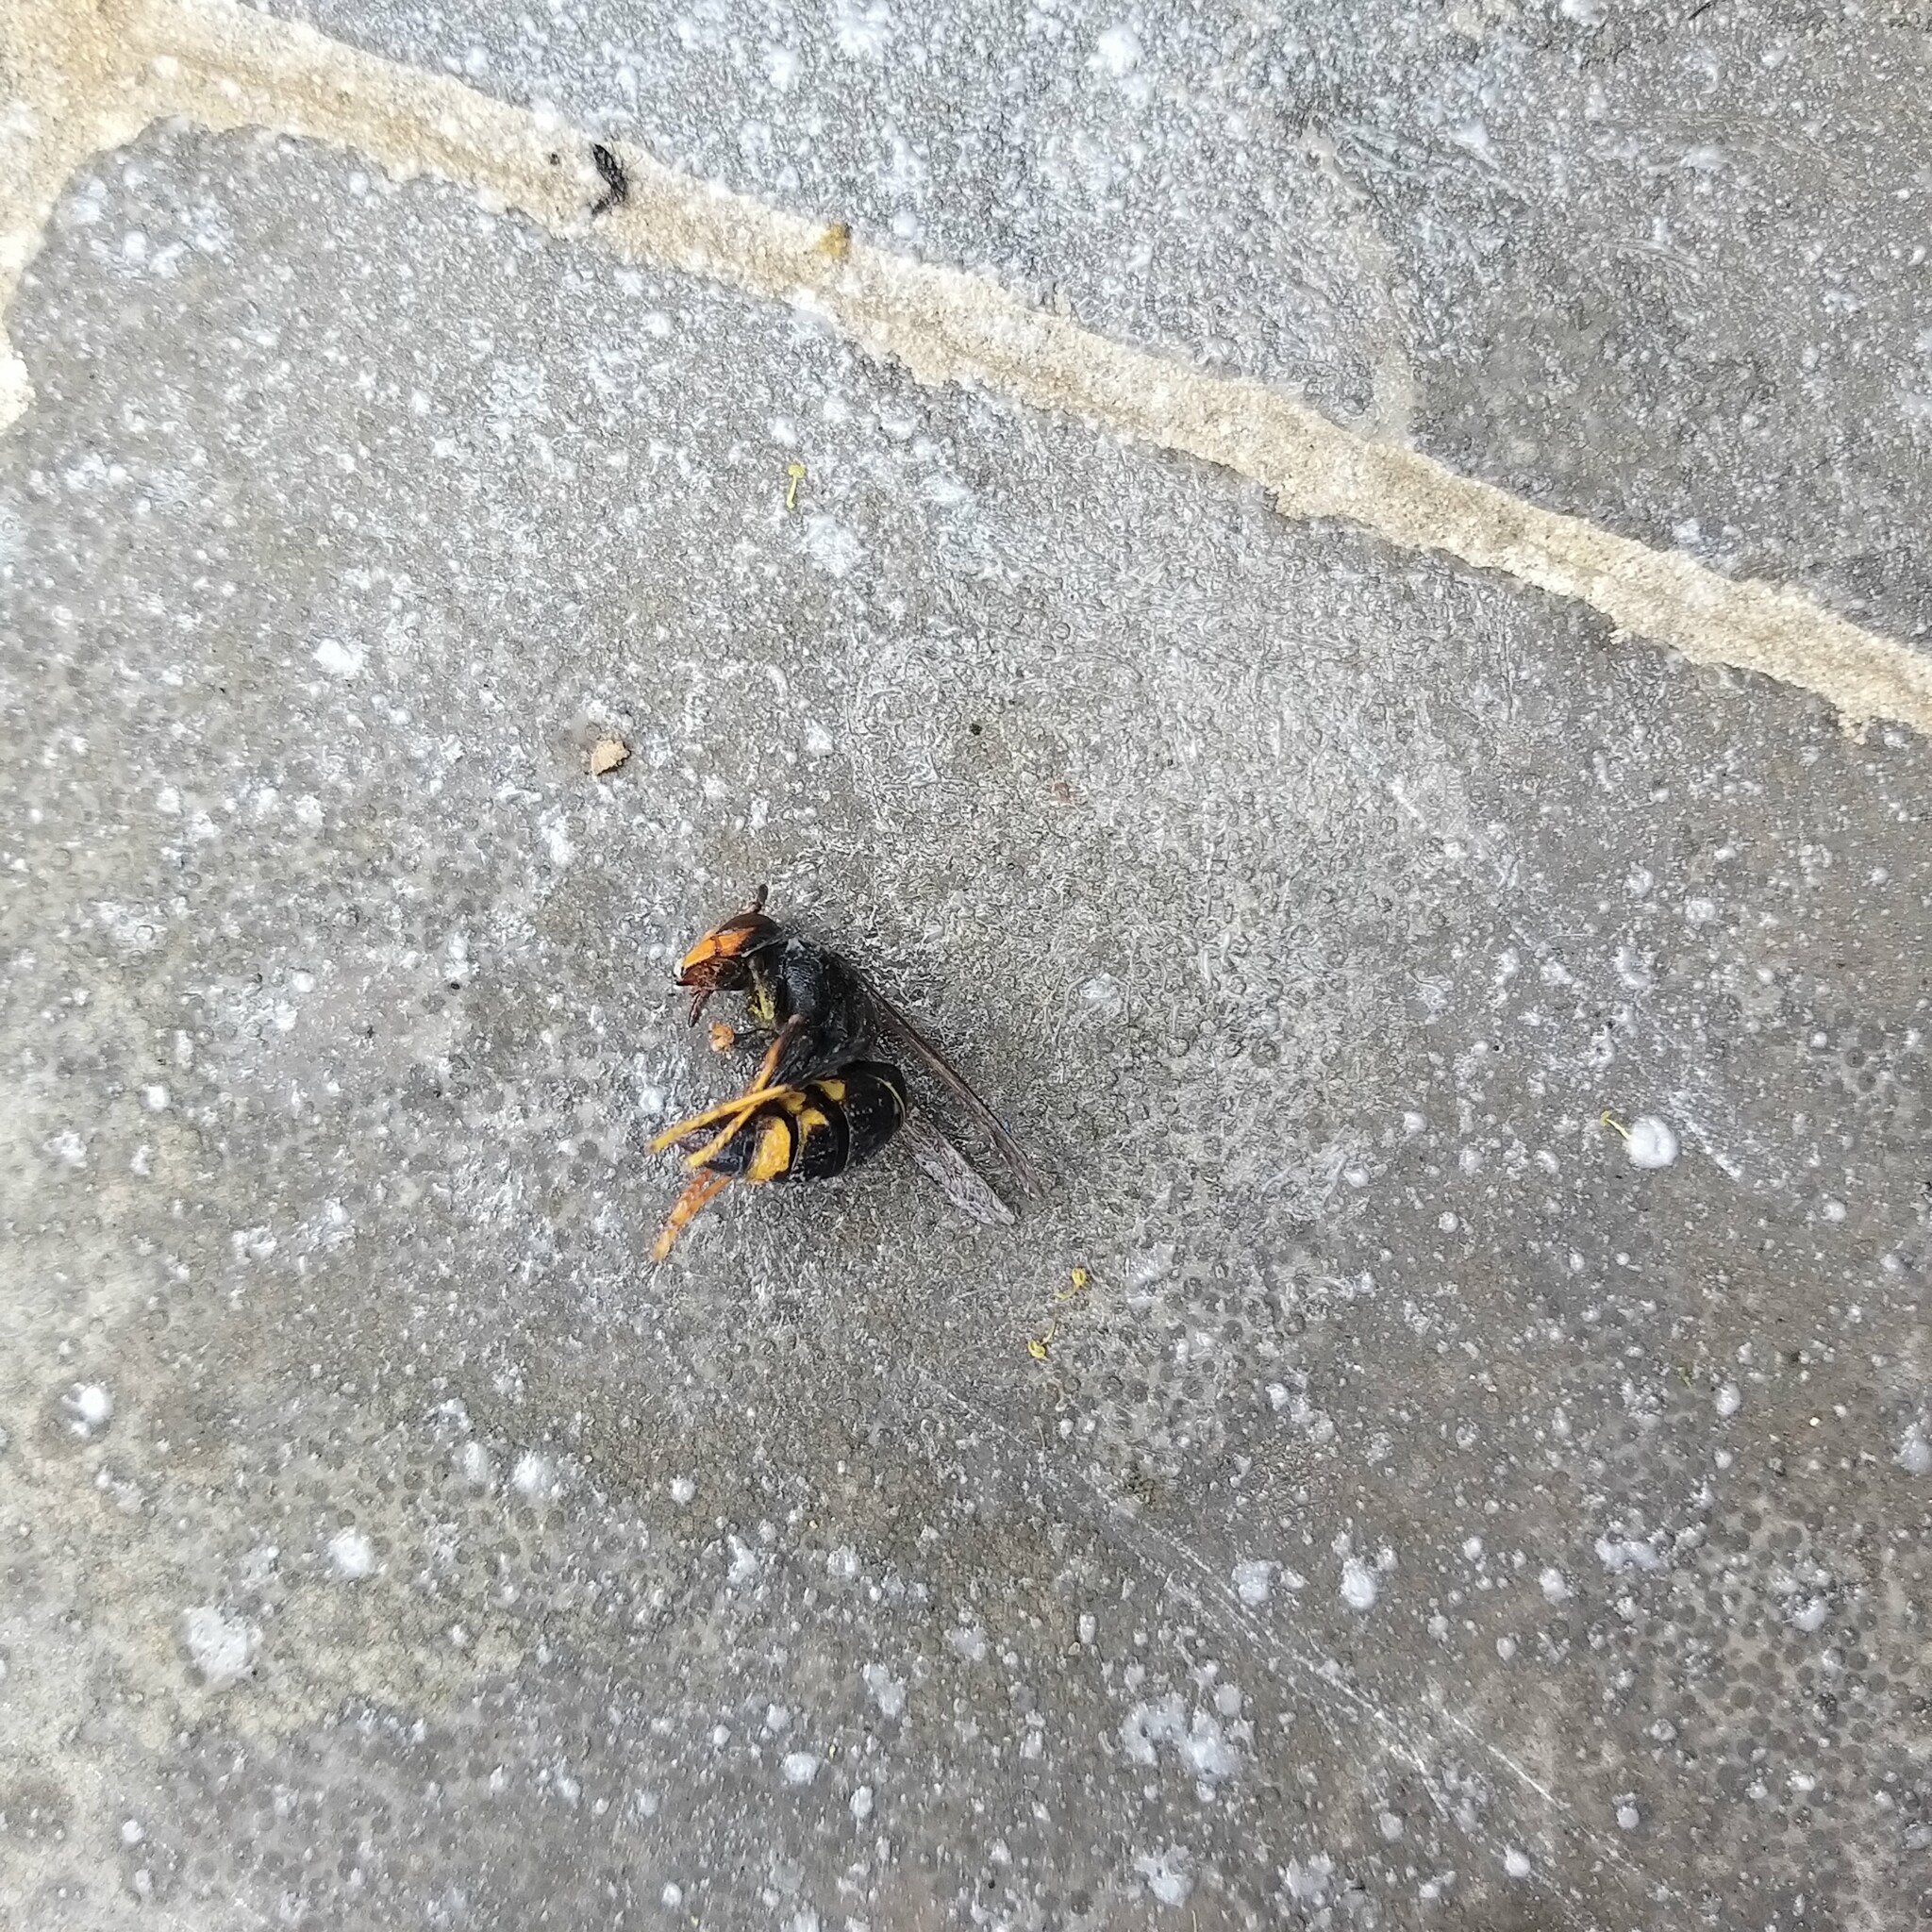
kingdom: Animalia
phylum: Arthropoda
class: Insecta
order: Hymenoptera
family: Vespidae
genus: Vespa
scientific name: Vespa velutina
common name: Asian hornet
